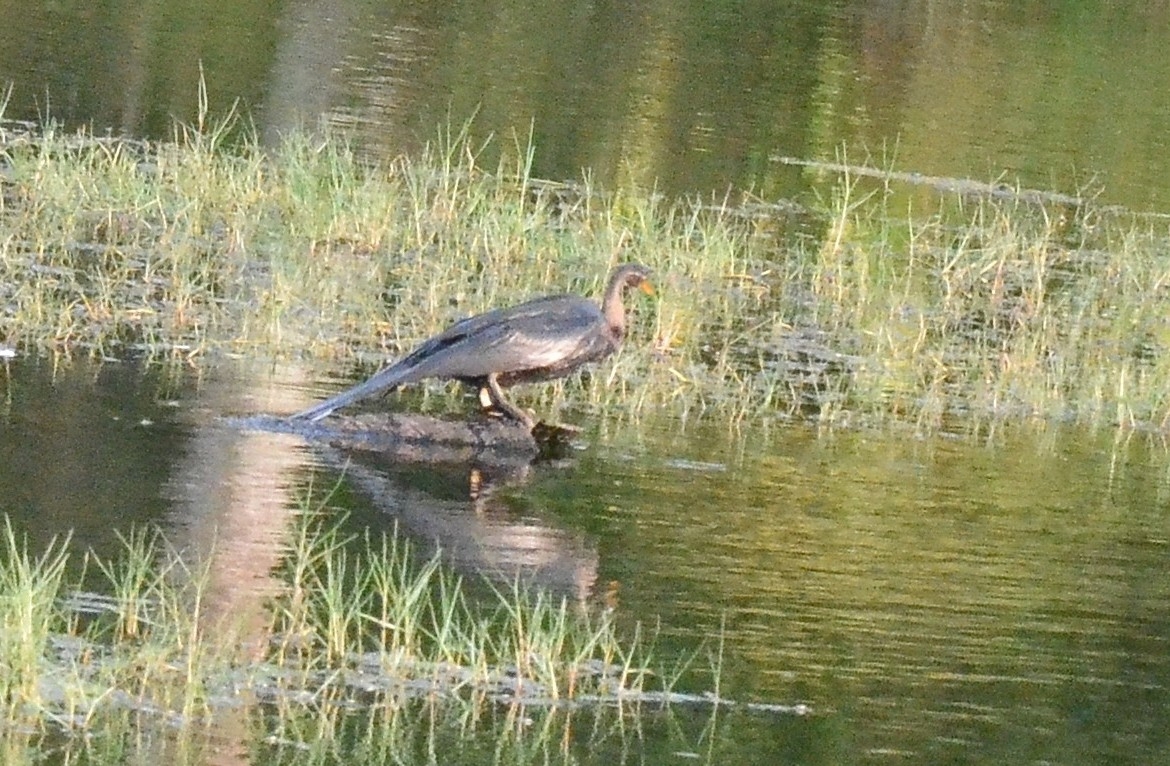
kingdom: Animalia
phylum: Chordata
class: Aves
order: Suliformes
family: Anhingidae
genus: Anhinga
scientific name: Anhinga melanogaster
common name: Oriental darter
